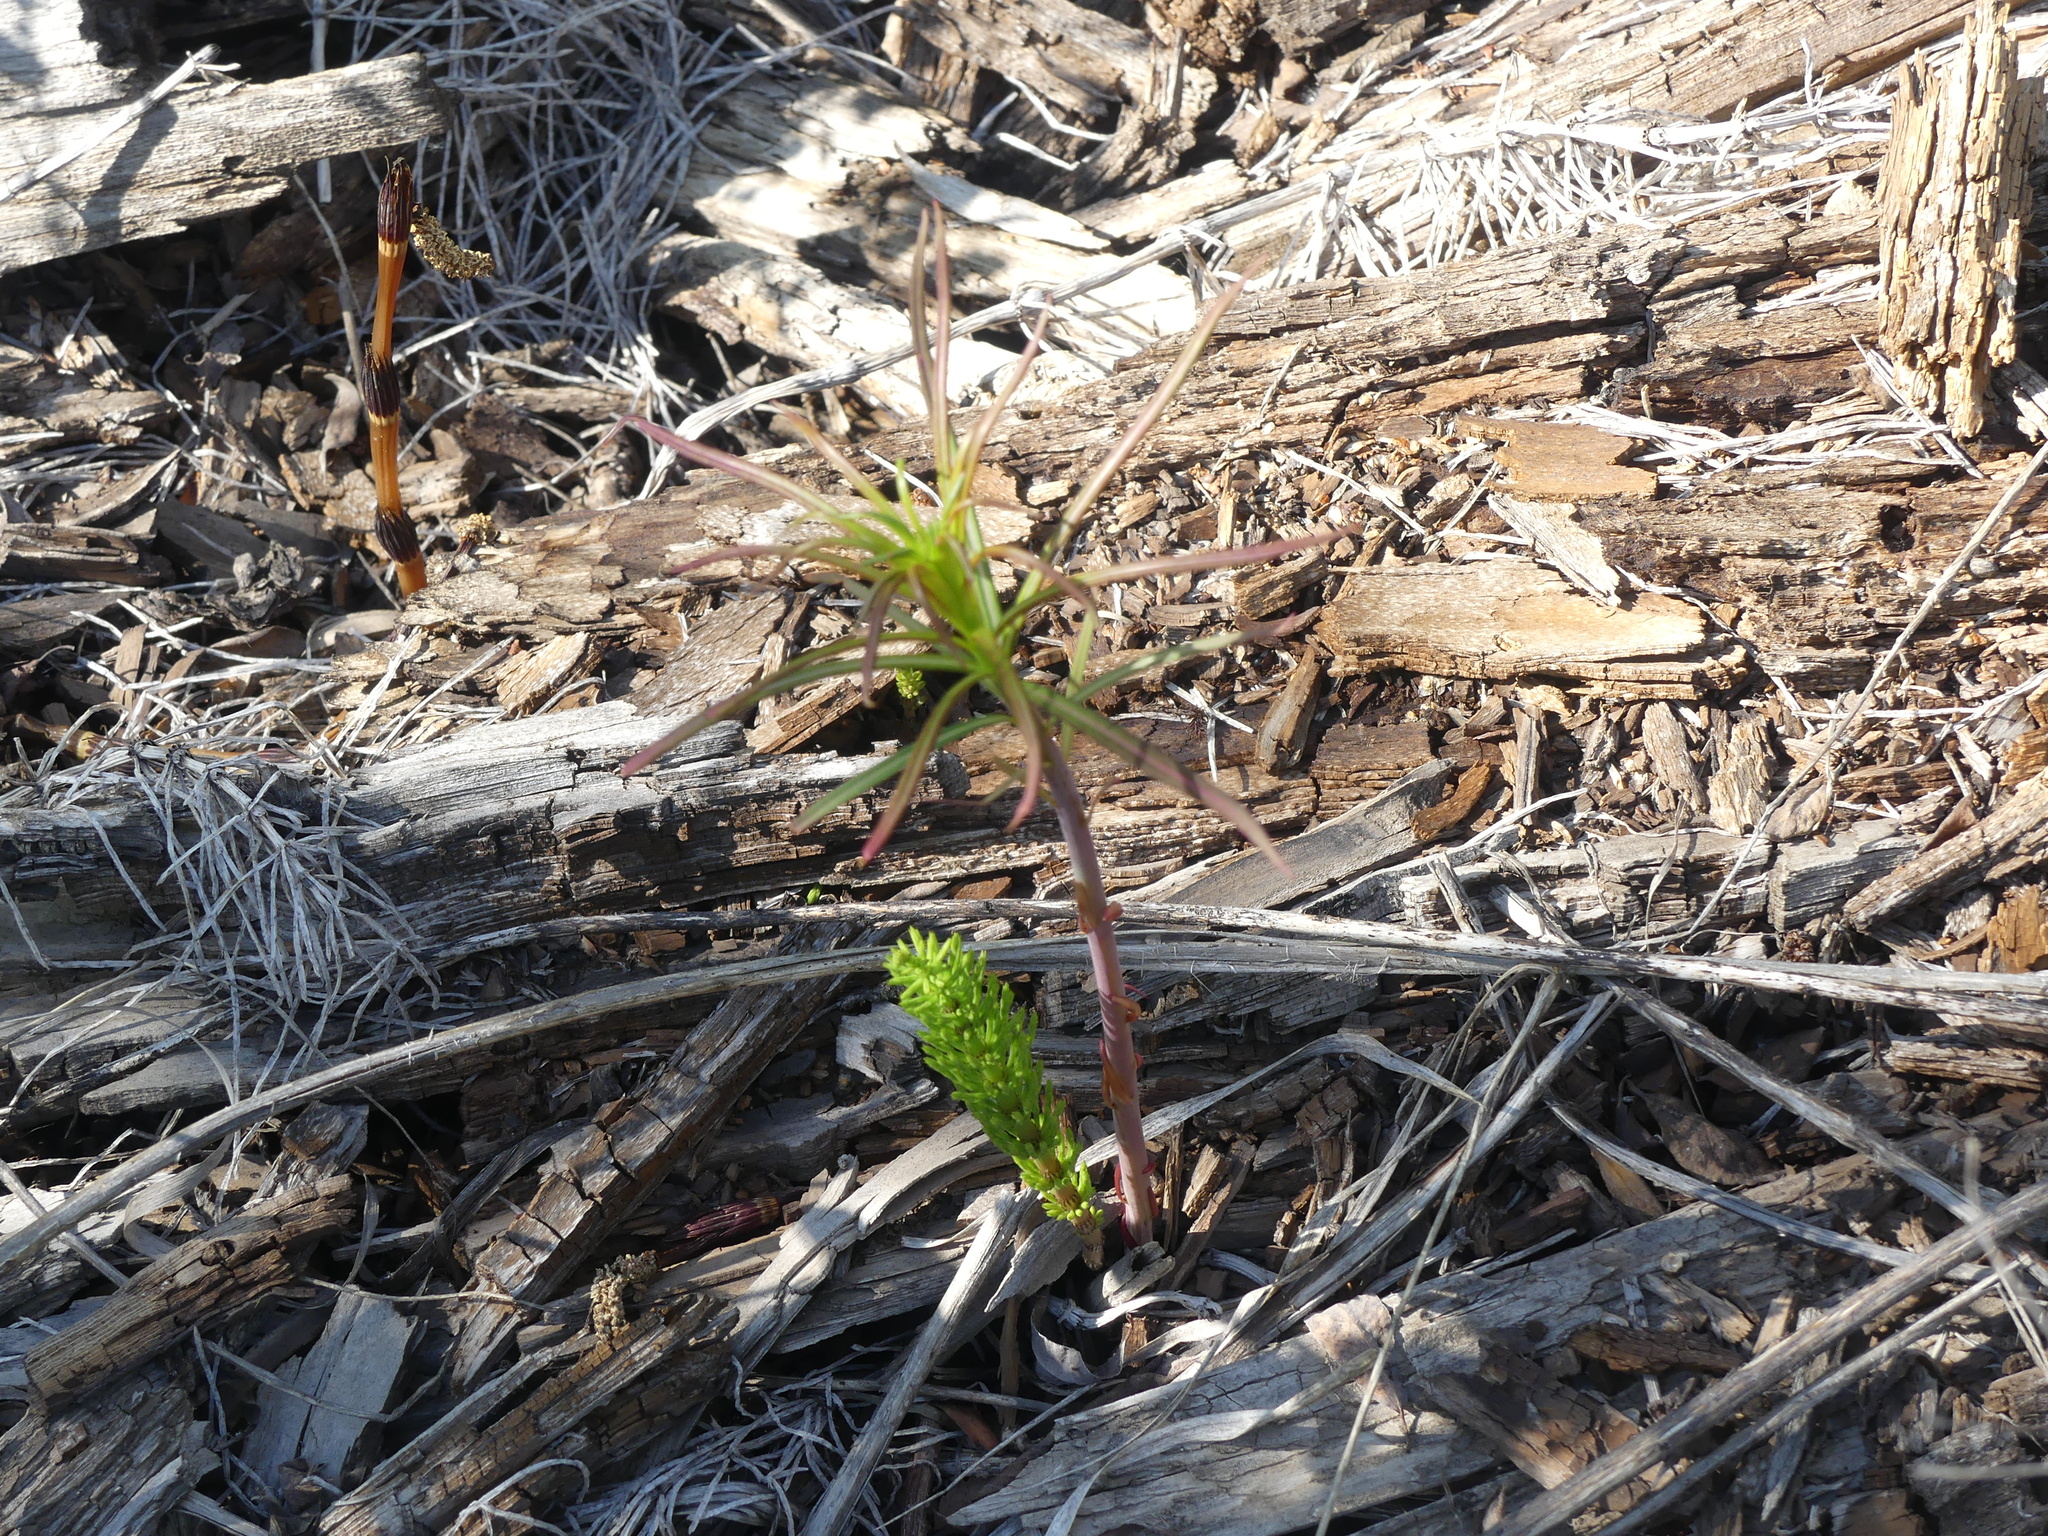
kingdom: Plantae
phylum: Tracheophyta
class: Magnoliopsida
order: Myrtales
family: Onagraceae
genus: Chamaenerion
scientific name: Chamaenerion angustifolium
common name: Fireweed
